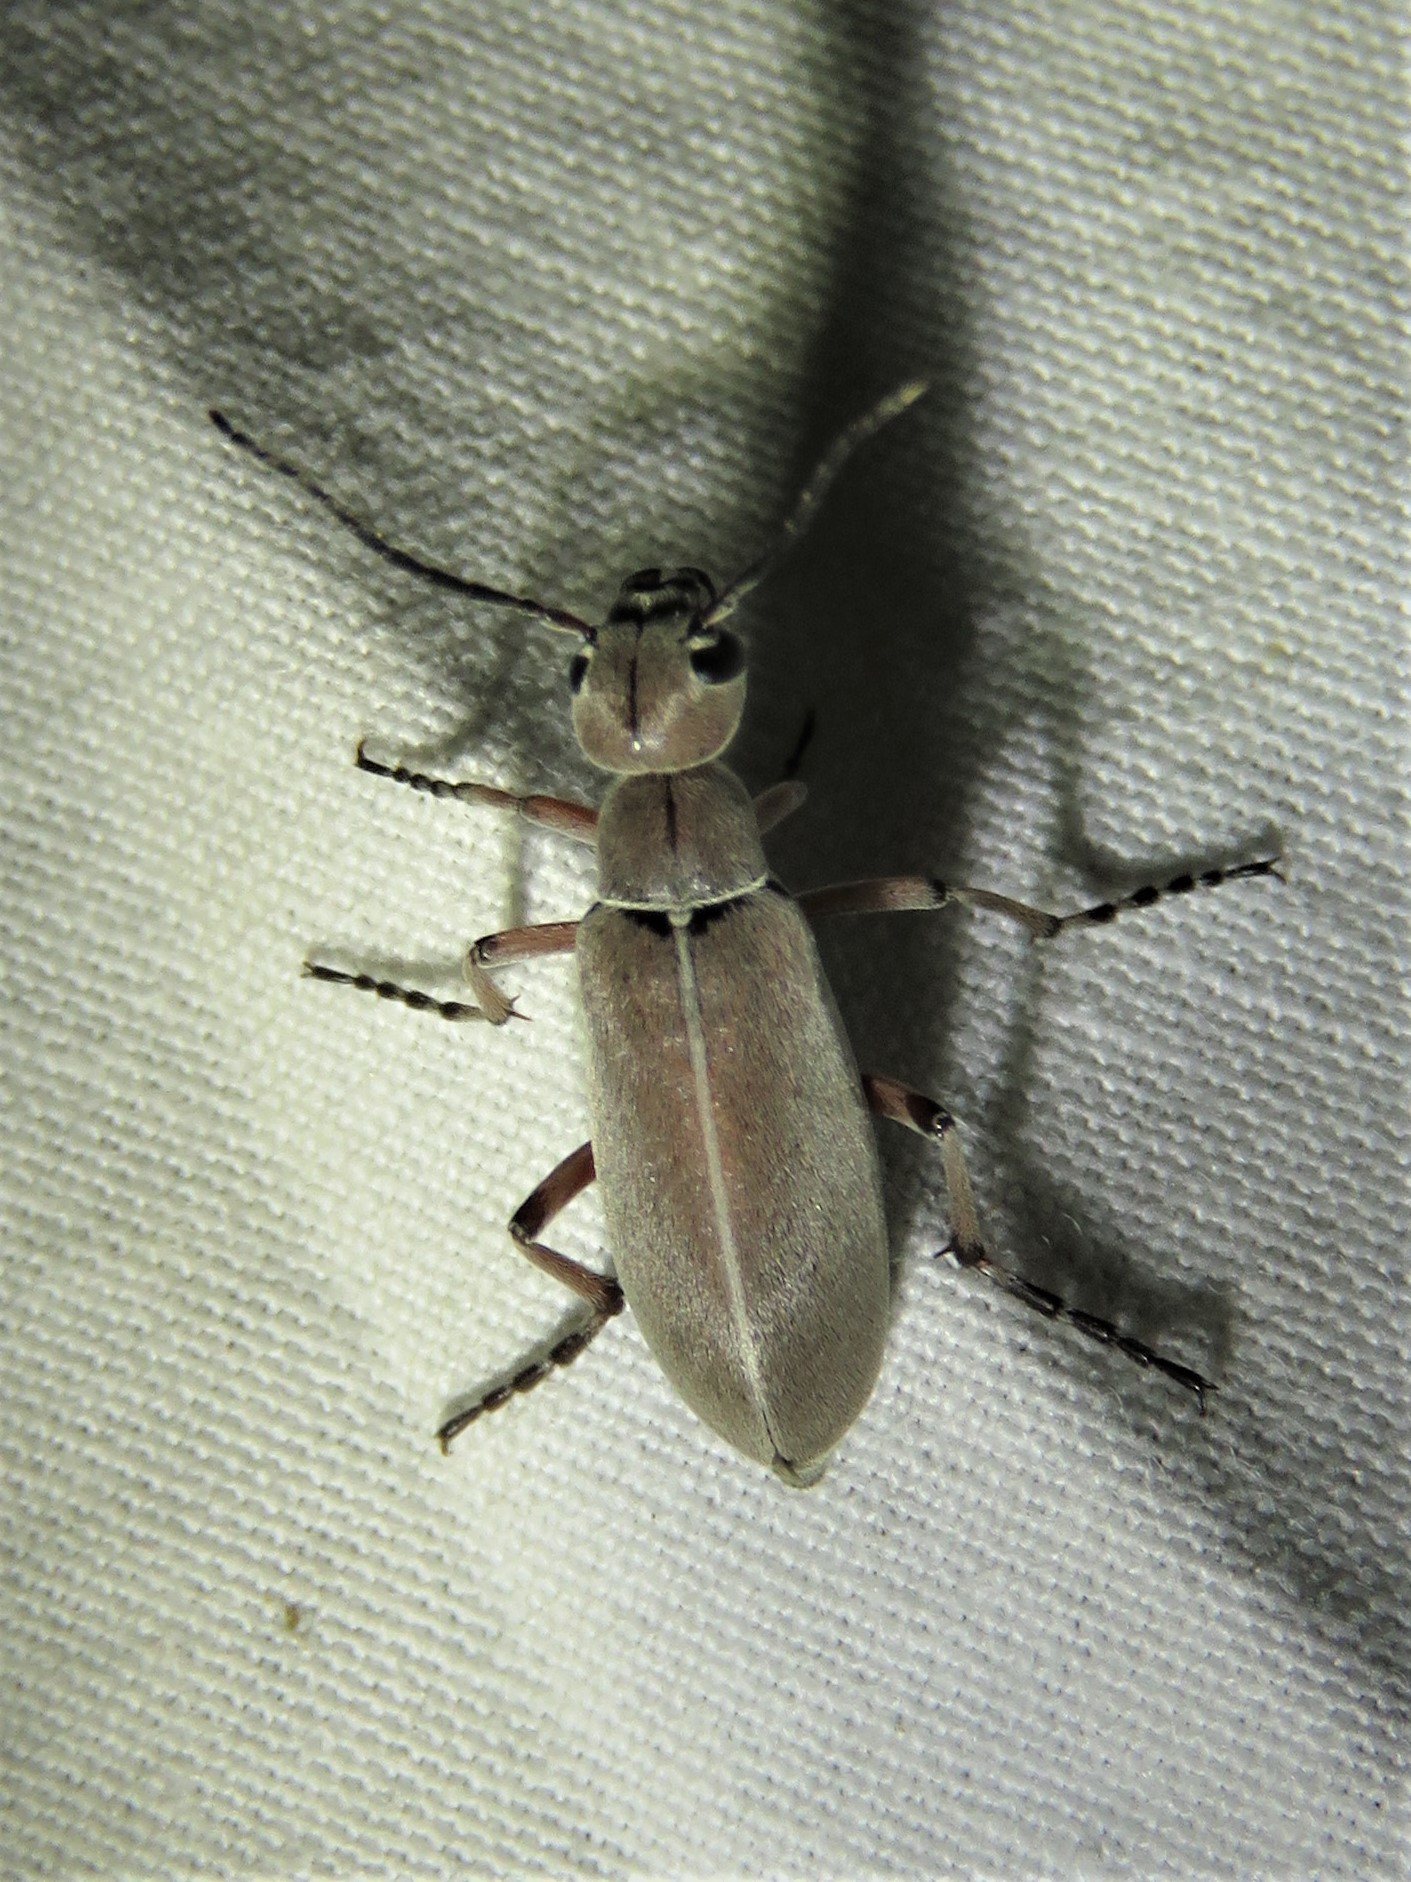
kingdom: Animalia
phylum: Arthropoda
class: Insecta
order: Coleoptera
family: Meloidae
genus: Epicauta
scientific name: Epicauta nigritarsis
